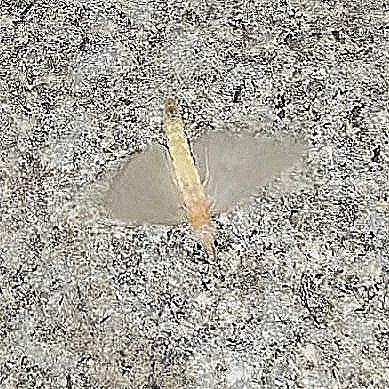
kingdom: Animalia
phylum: Arthropoda
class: Insecta
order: Ephemeroptera
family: Polymitarcyidae
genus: Ephoron
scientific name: Ephoron virgo
